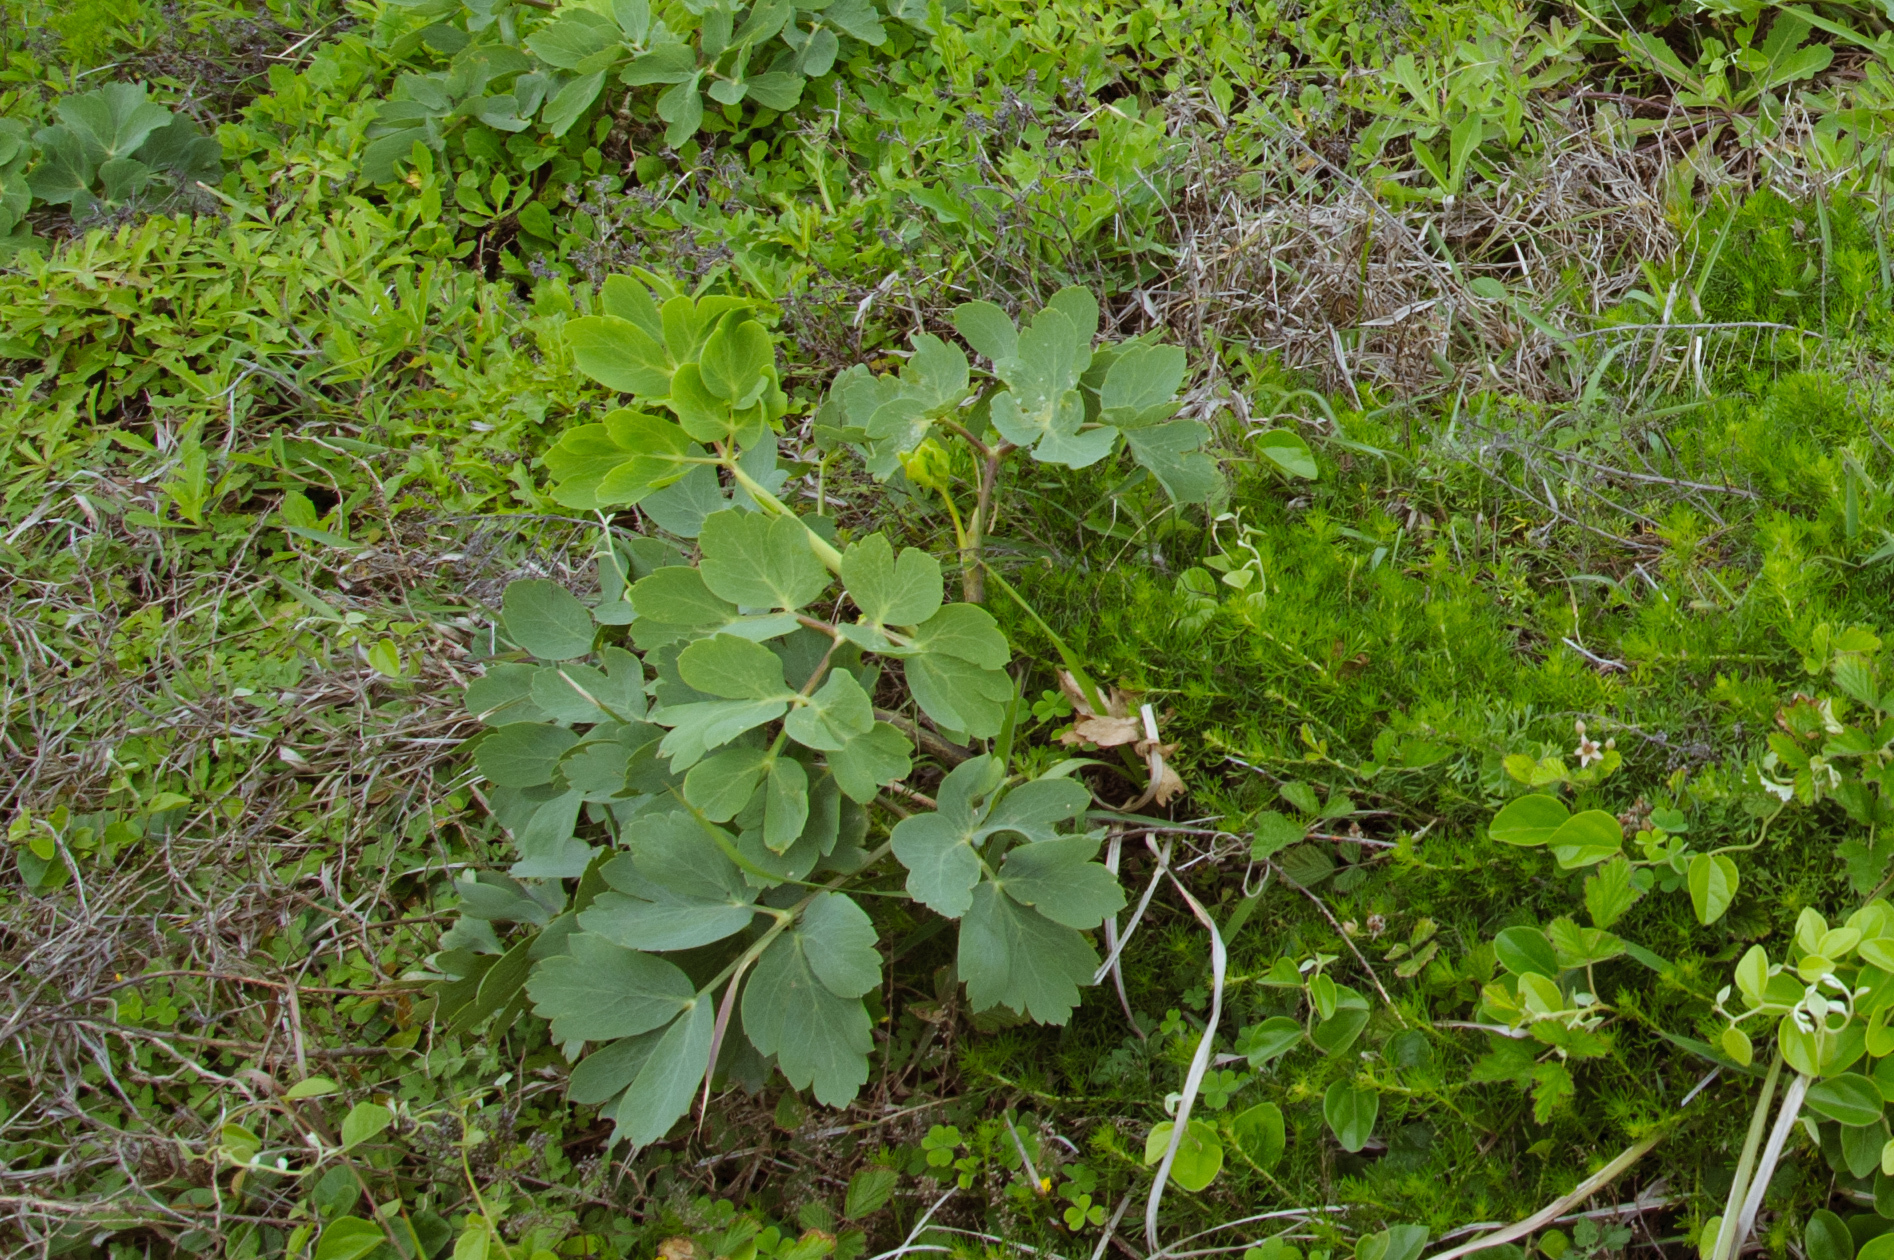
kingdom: Plantae
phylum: Tracheophyta
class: Magnoliopsida
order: Apiales
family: Apiaceae
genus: Peucedanum
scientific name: Peucedanum japonicum
